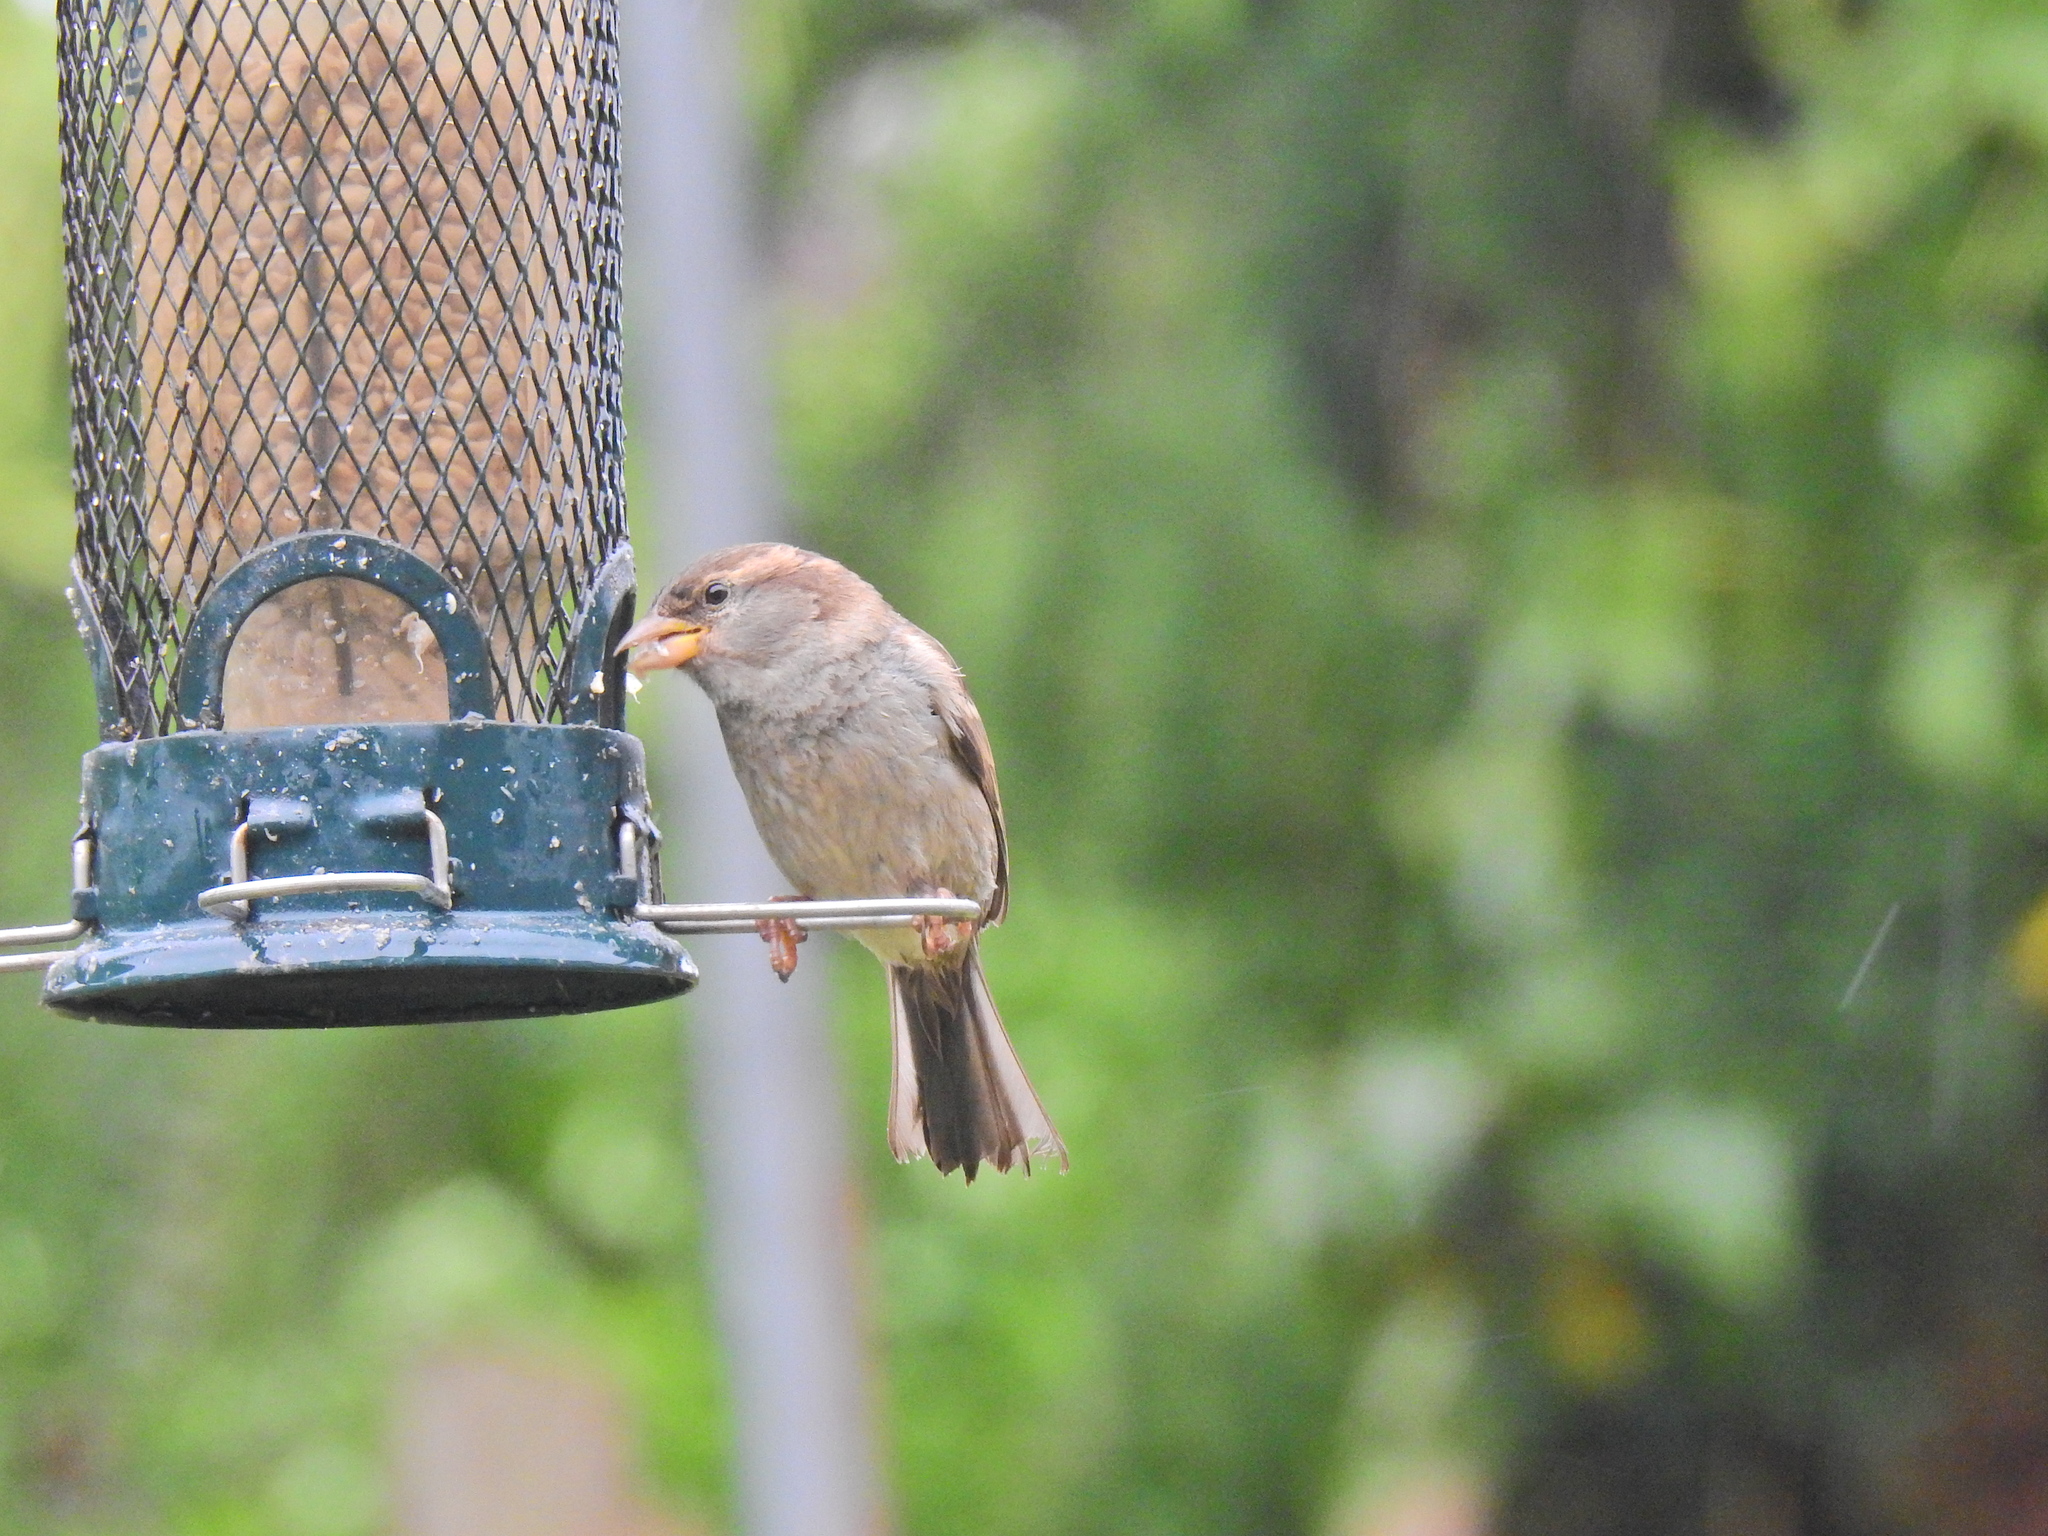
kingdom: Animalia
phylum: Chordata
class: Aves
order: Passeriformes
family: Passeridae
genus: Passer
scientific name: Passer domesticus
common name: House sparrow
